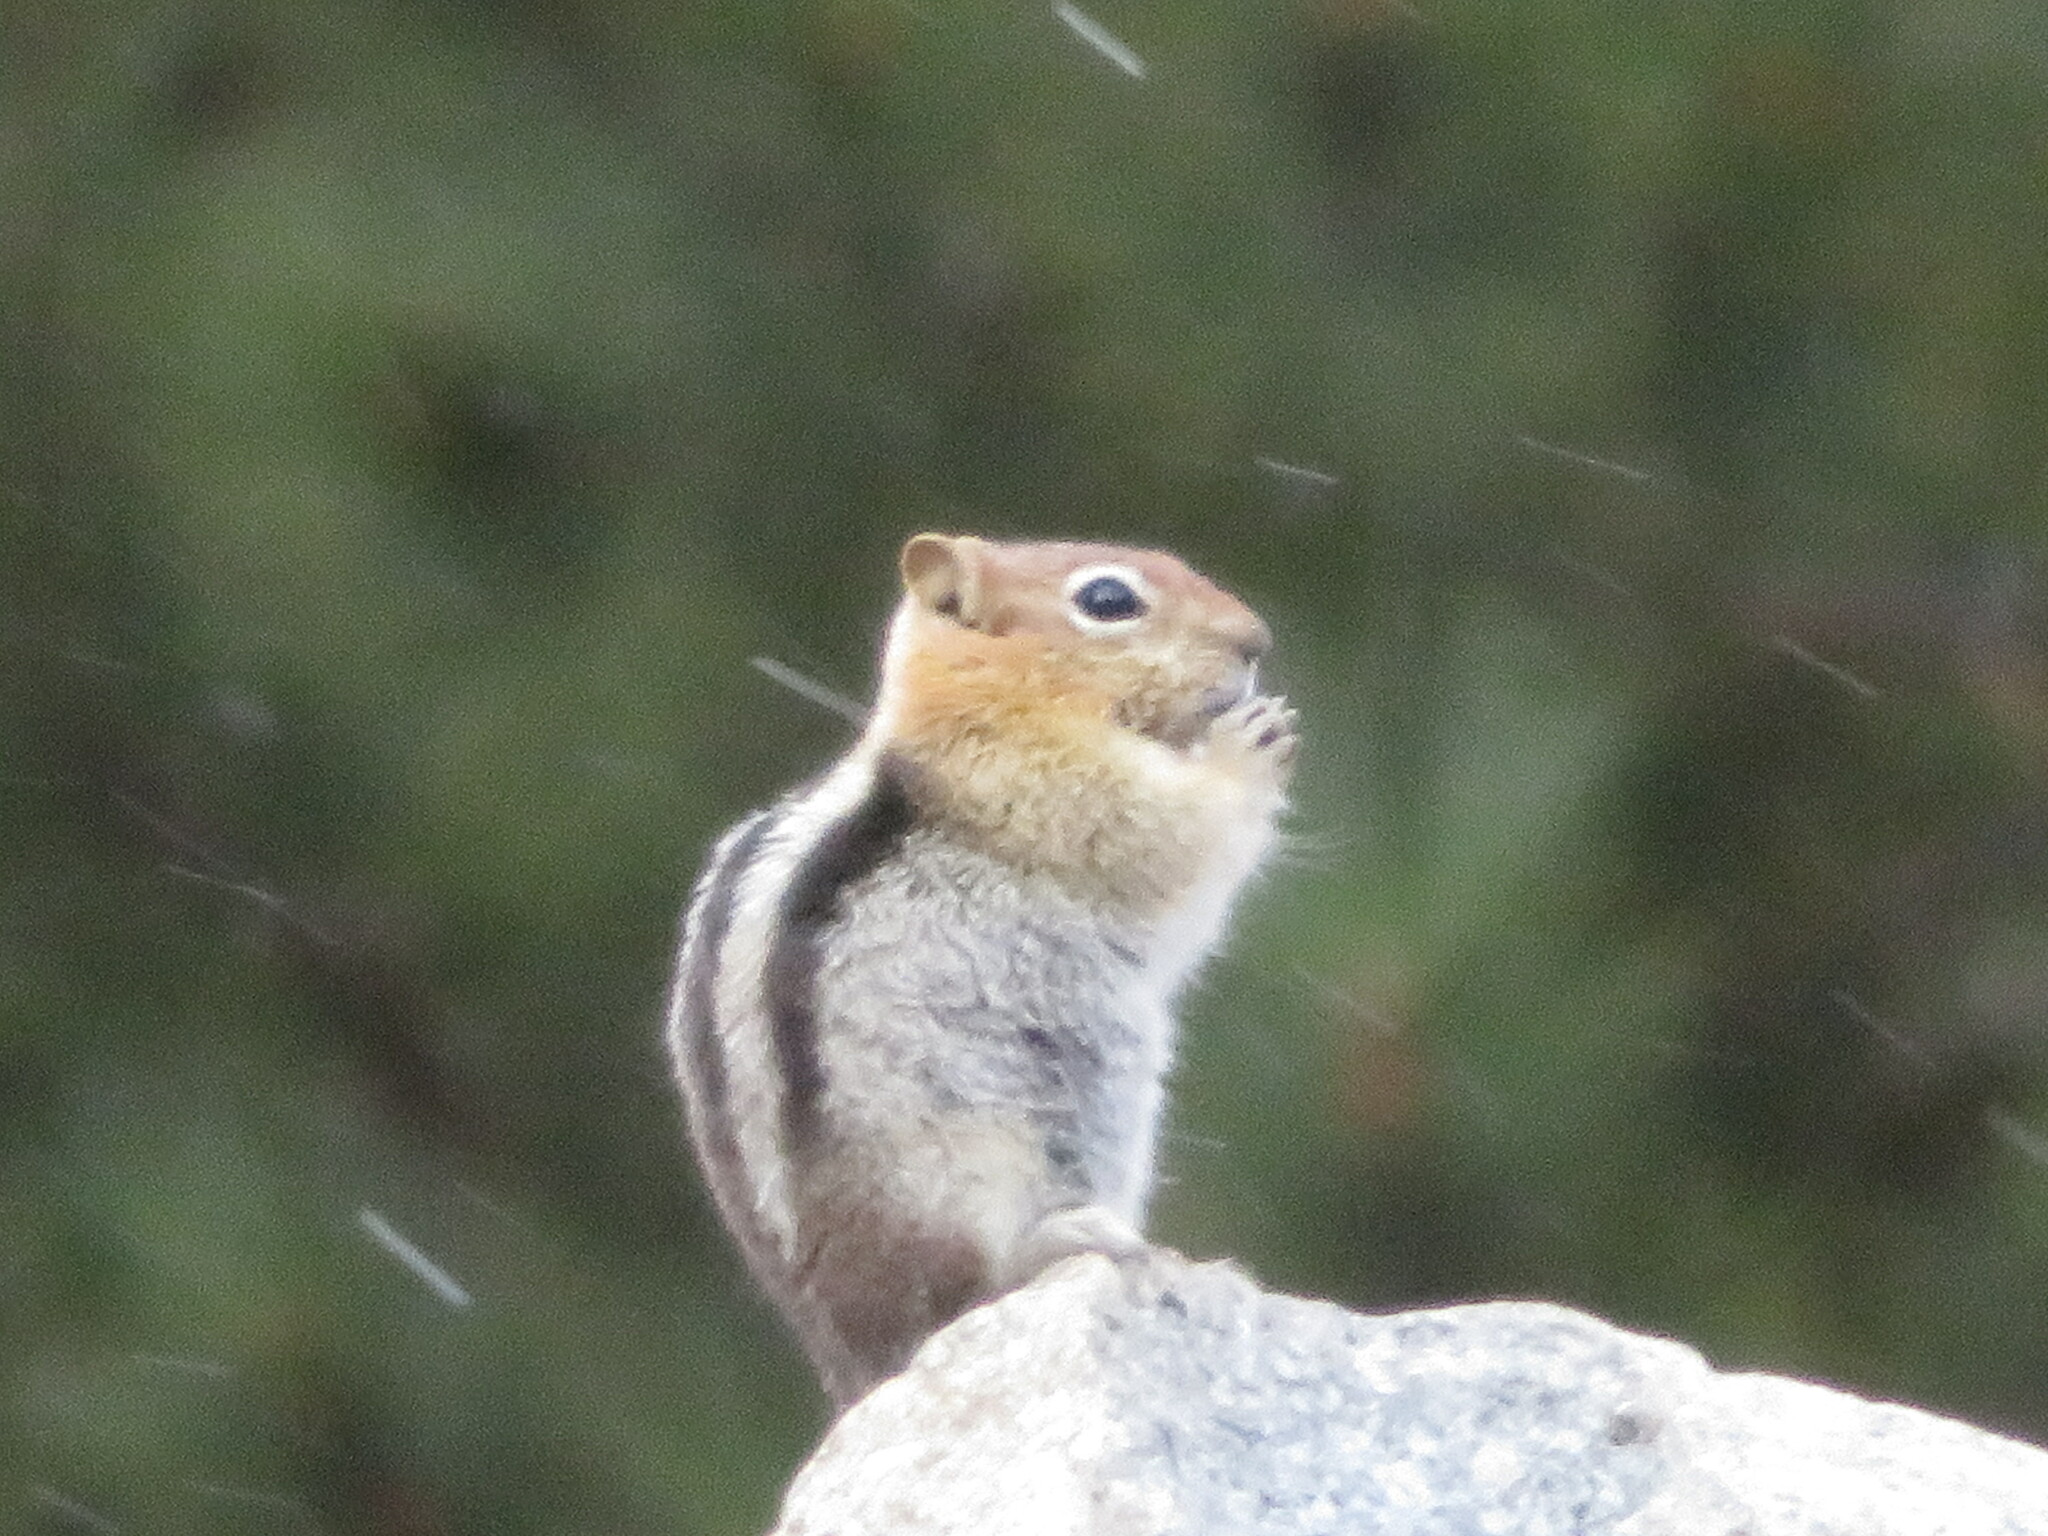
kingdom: Animalia
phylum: Chordata
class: Mammalia
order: Rodentia
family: Sciuridae
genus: Callospermophilus
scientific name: Callospermophilus lateralis
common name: Golden-mantled ground squirrel
